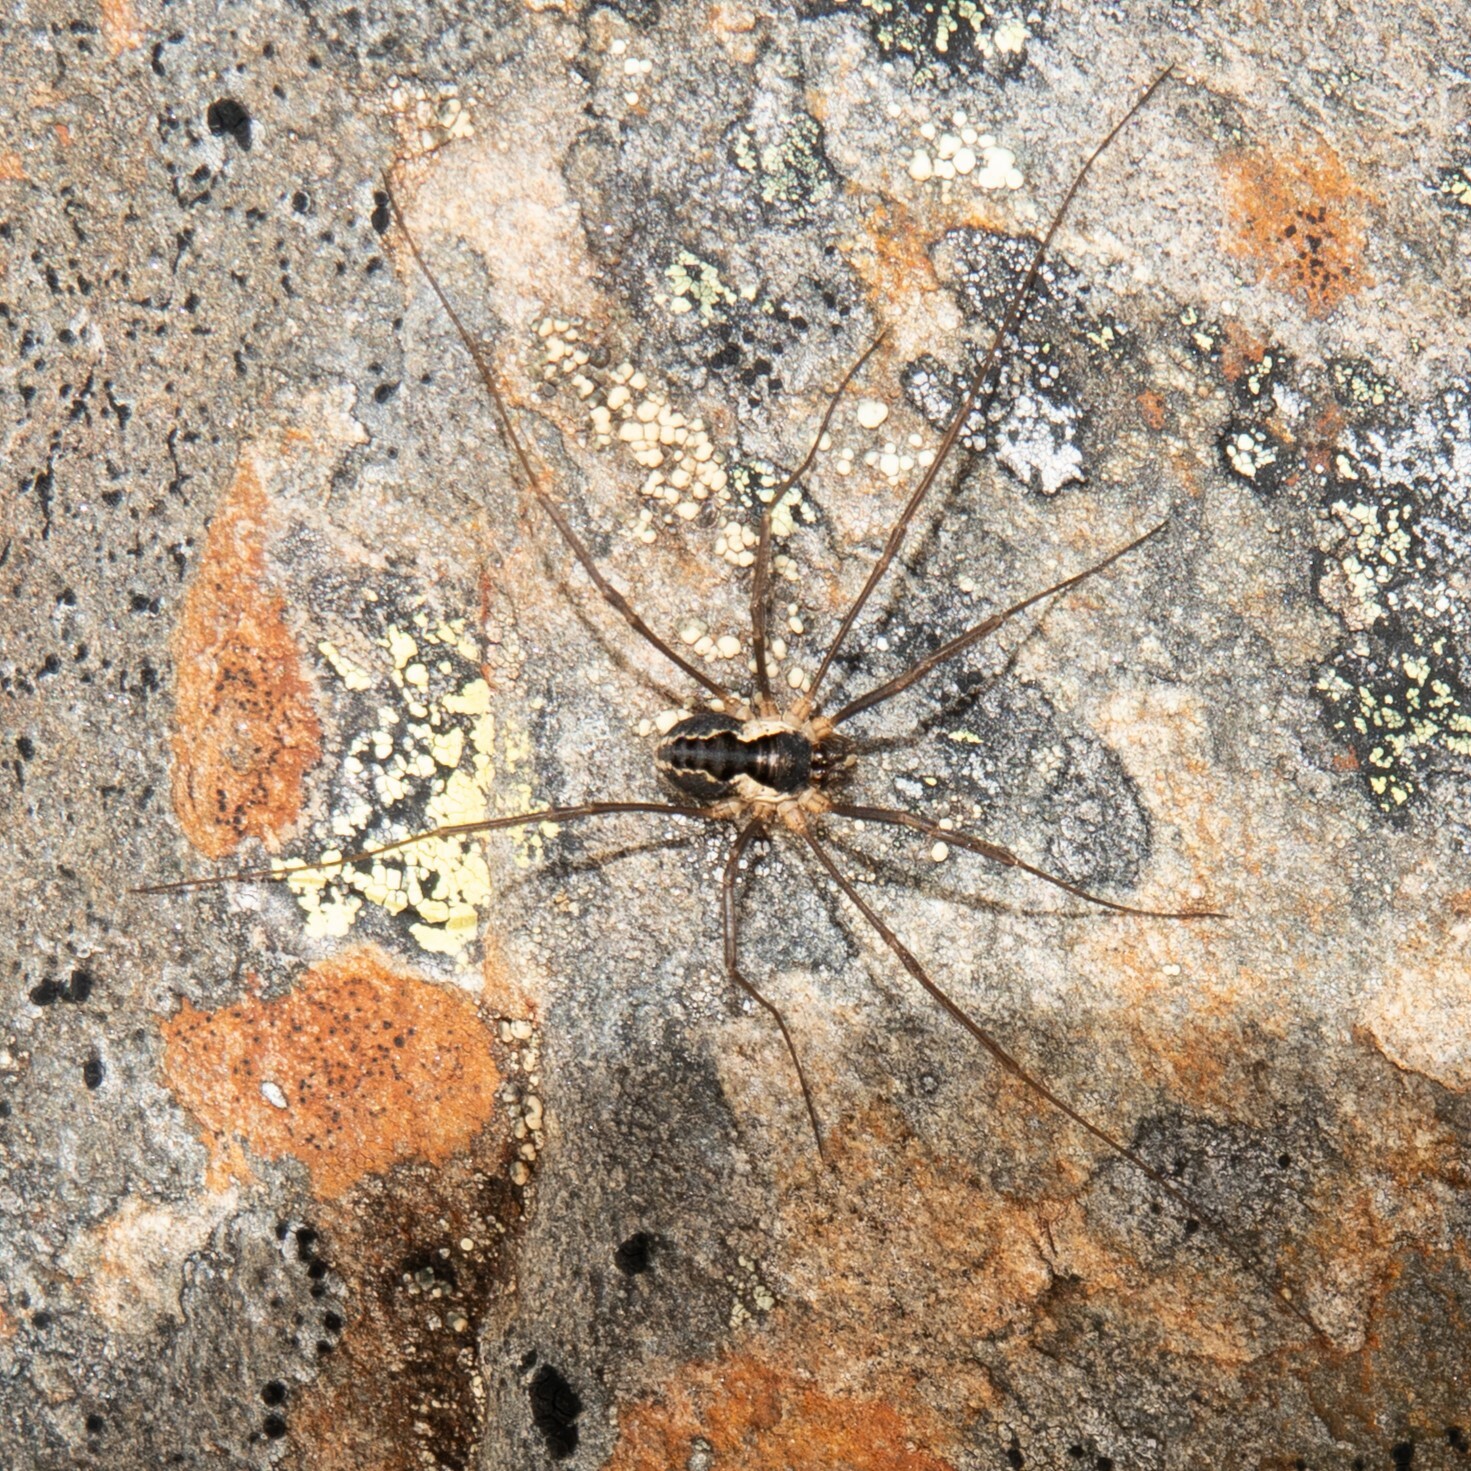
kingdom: Animalia
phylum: Arthropoda
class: Arachnida
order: Opiliones
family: Phalangiidae
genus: Mitopus
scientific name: Mitopus morio
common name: Saddleback harvestman
